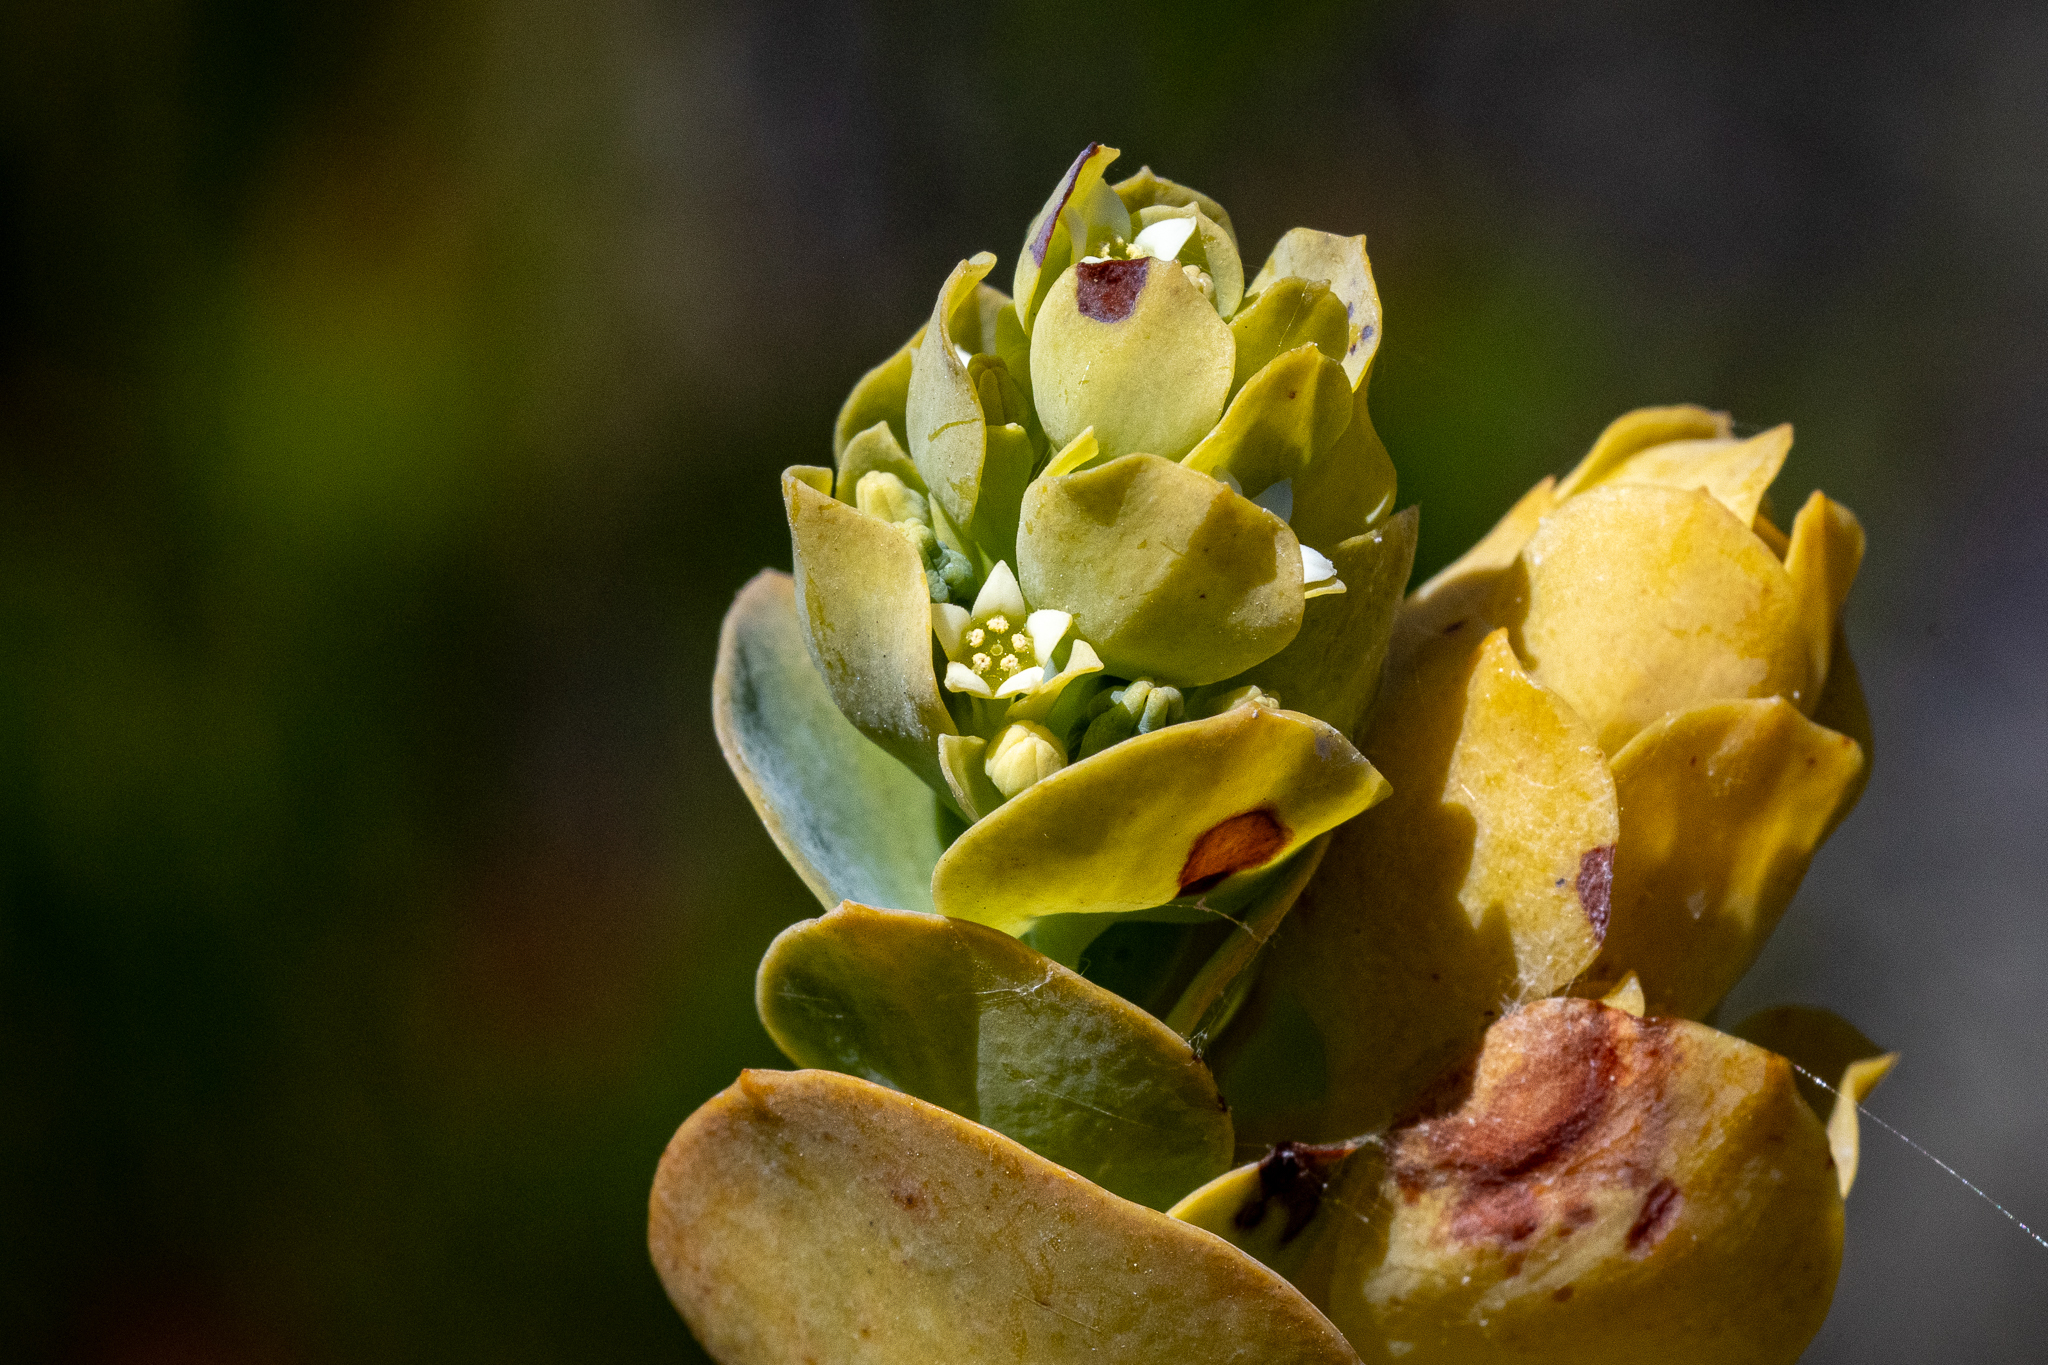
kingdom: Plantae
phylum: Tracheophyta
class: Magnoliopsida
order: Santalales
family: Thesiaceae
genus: Thesium
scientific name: Thesium euphorbioides
